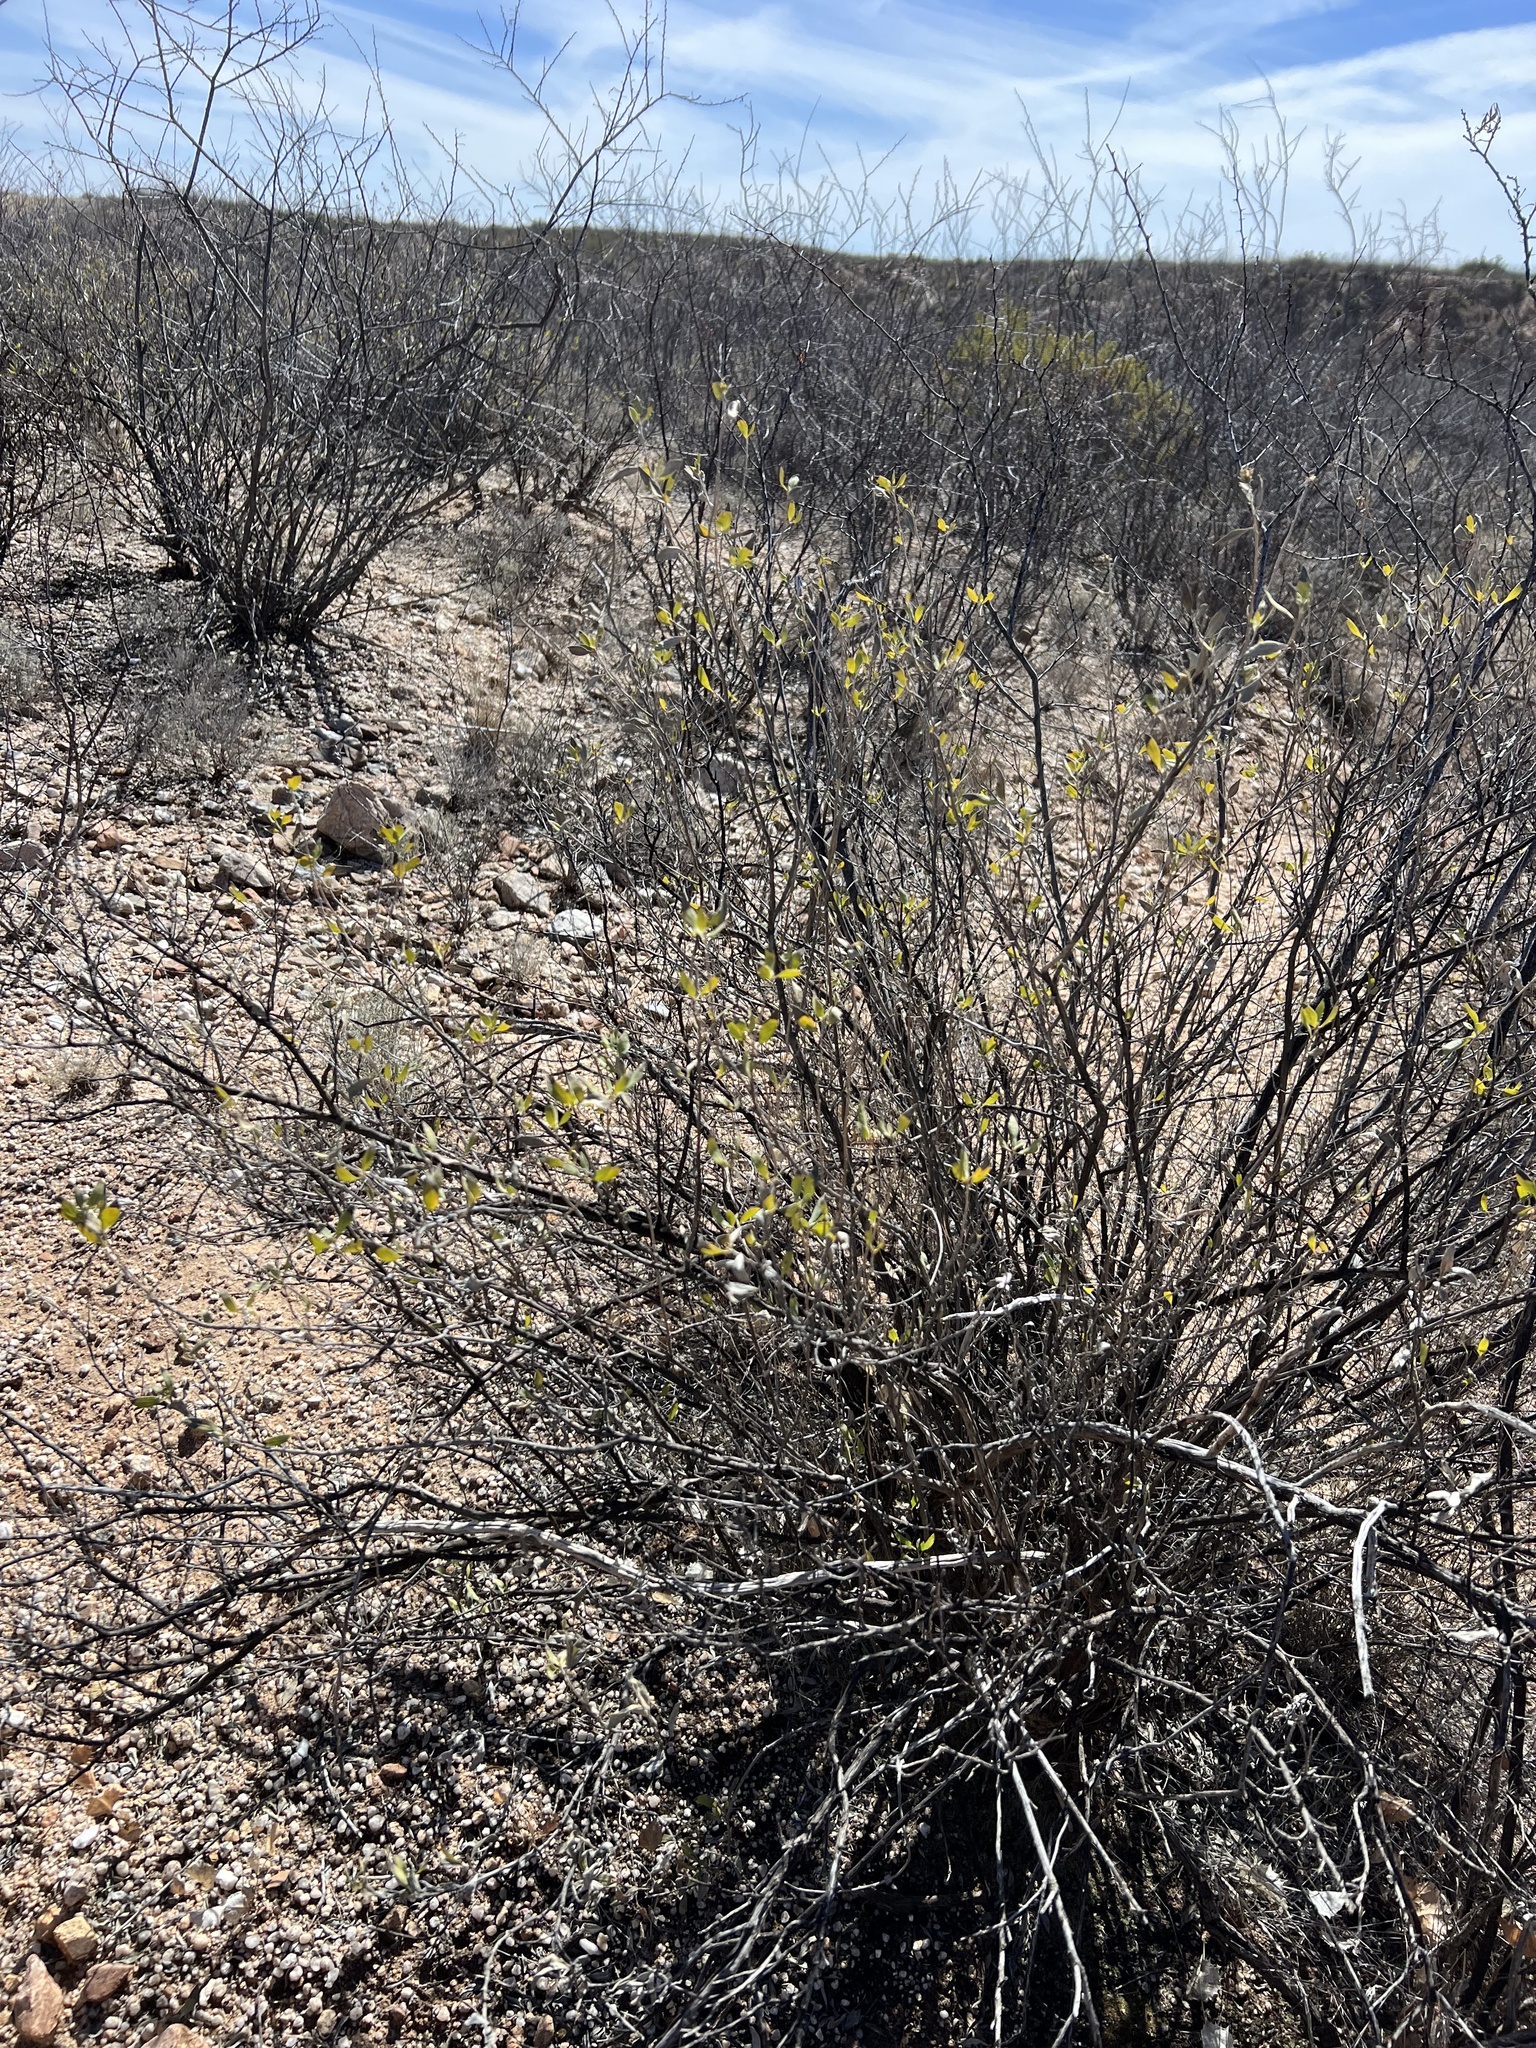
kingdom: Plantae
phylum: Tracheophyta
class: Magnoliopsida
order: Asterales
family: Asteraceae
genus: Flourensia
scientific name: Flourensia cernua
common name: Varnishbush
